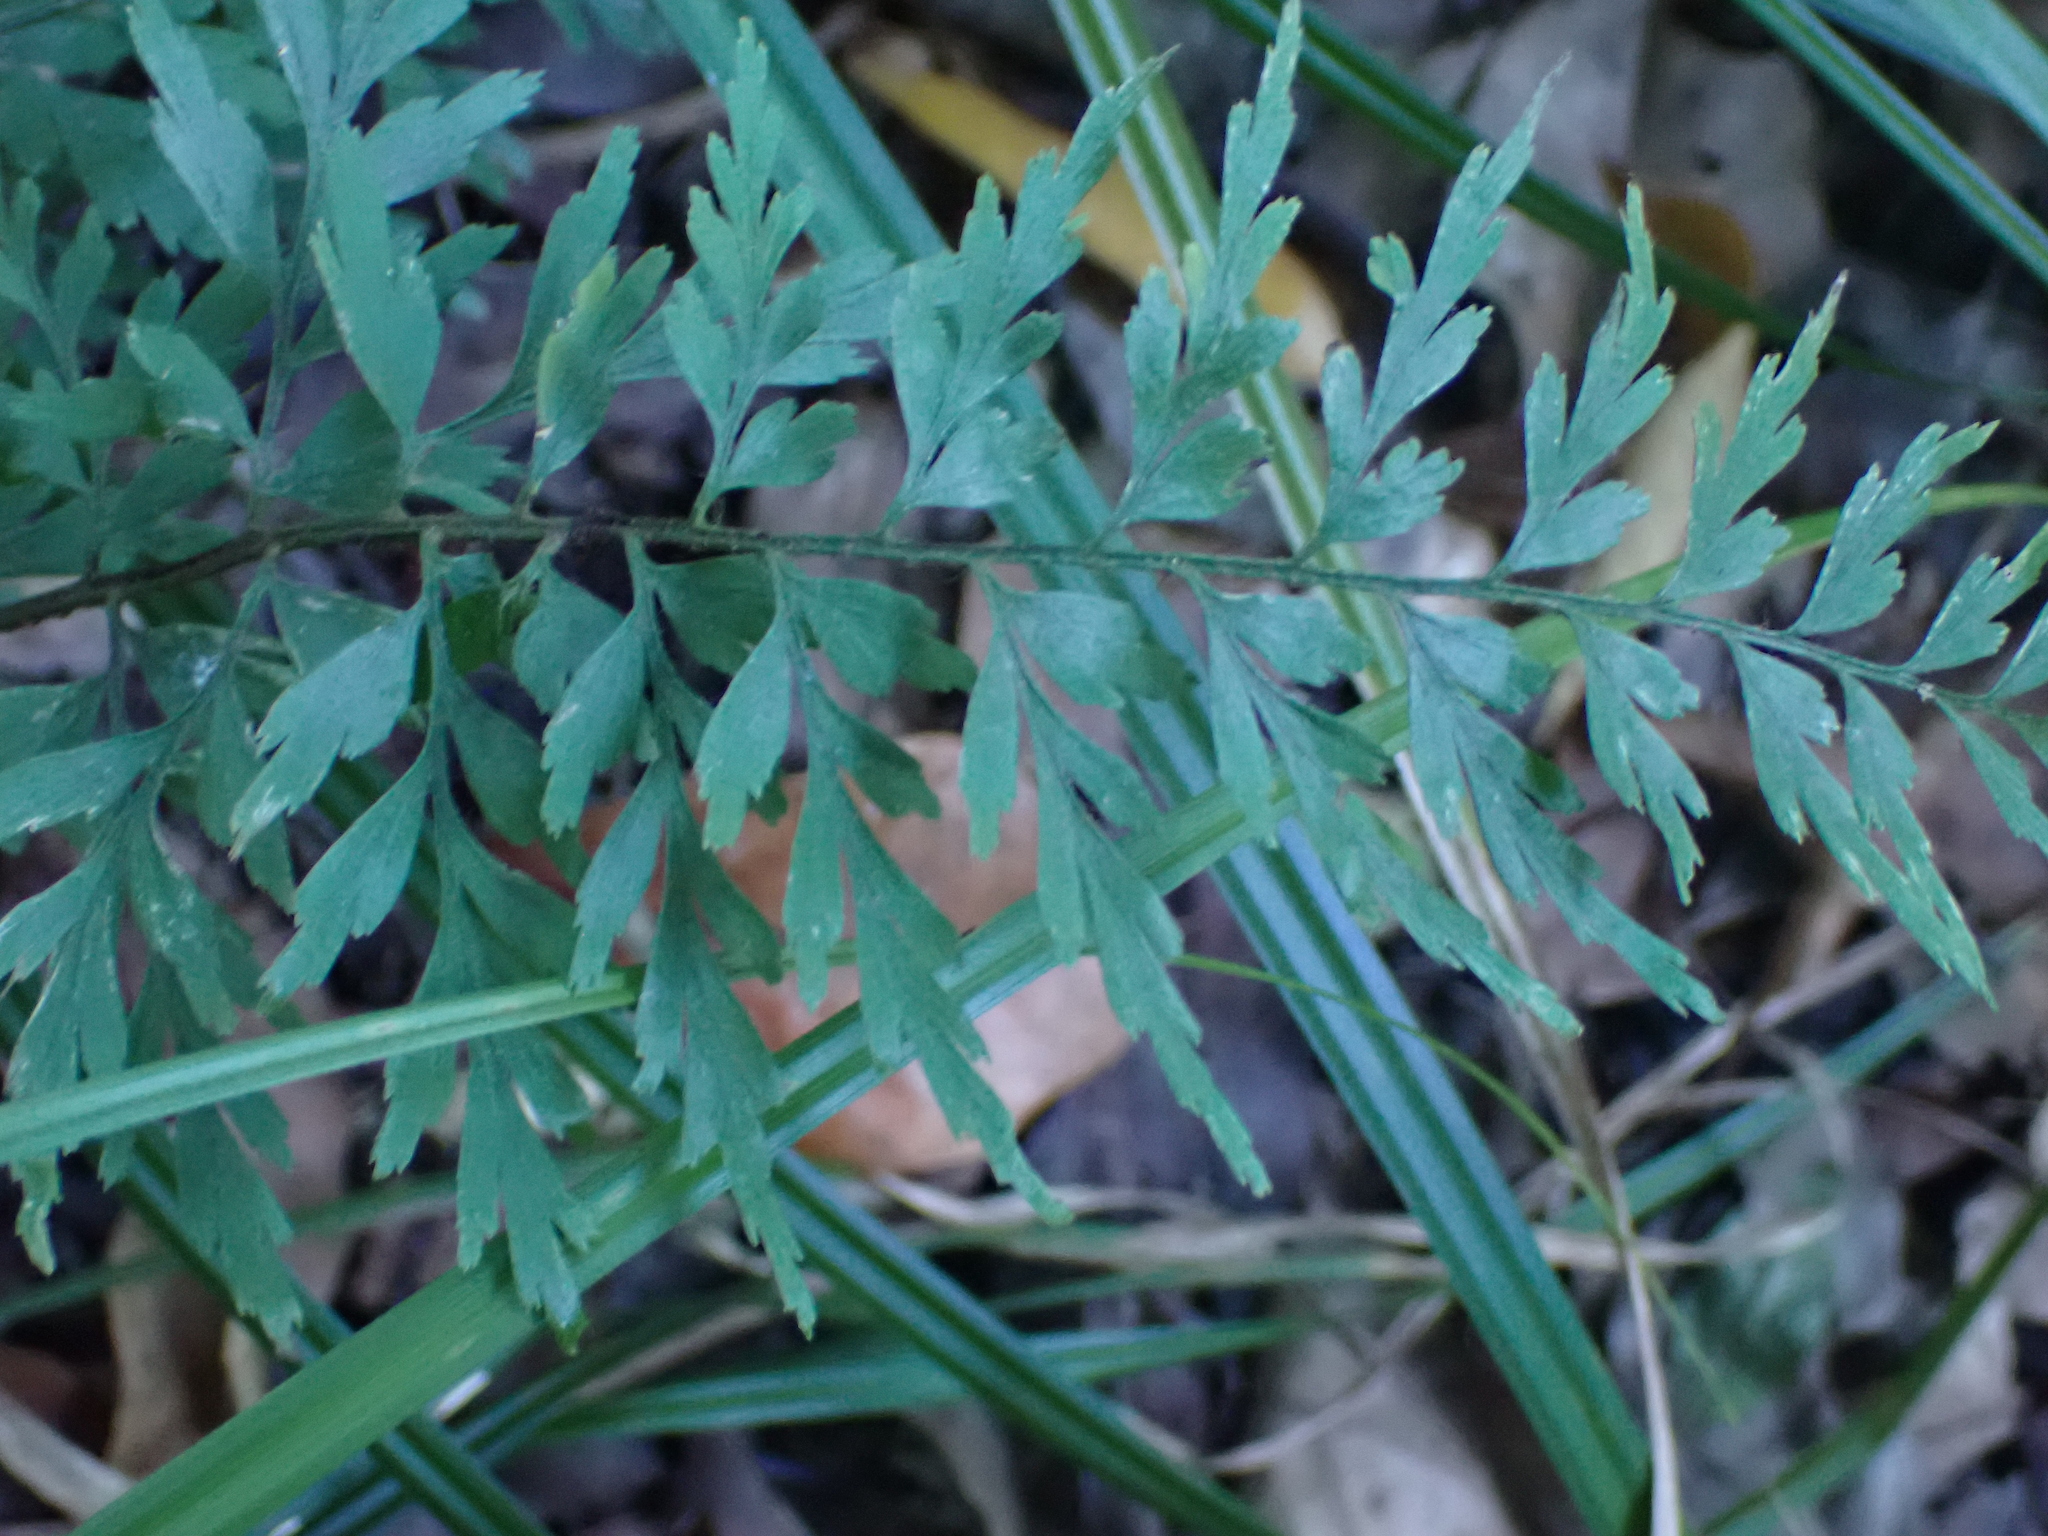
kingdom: Plantae
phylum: Tracheophyta
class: Polypodiopsida
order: Polypodiales
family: Aspleniaceae
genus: Asplenium
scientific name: Asplenium aethiopicum
